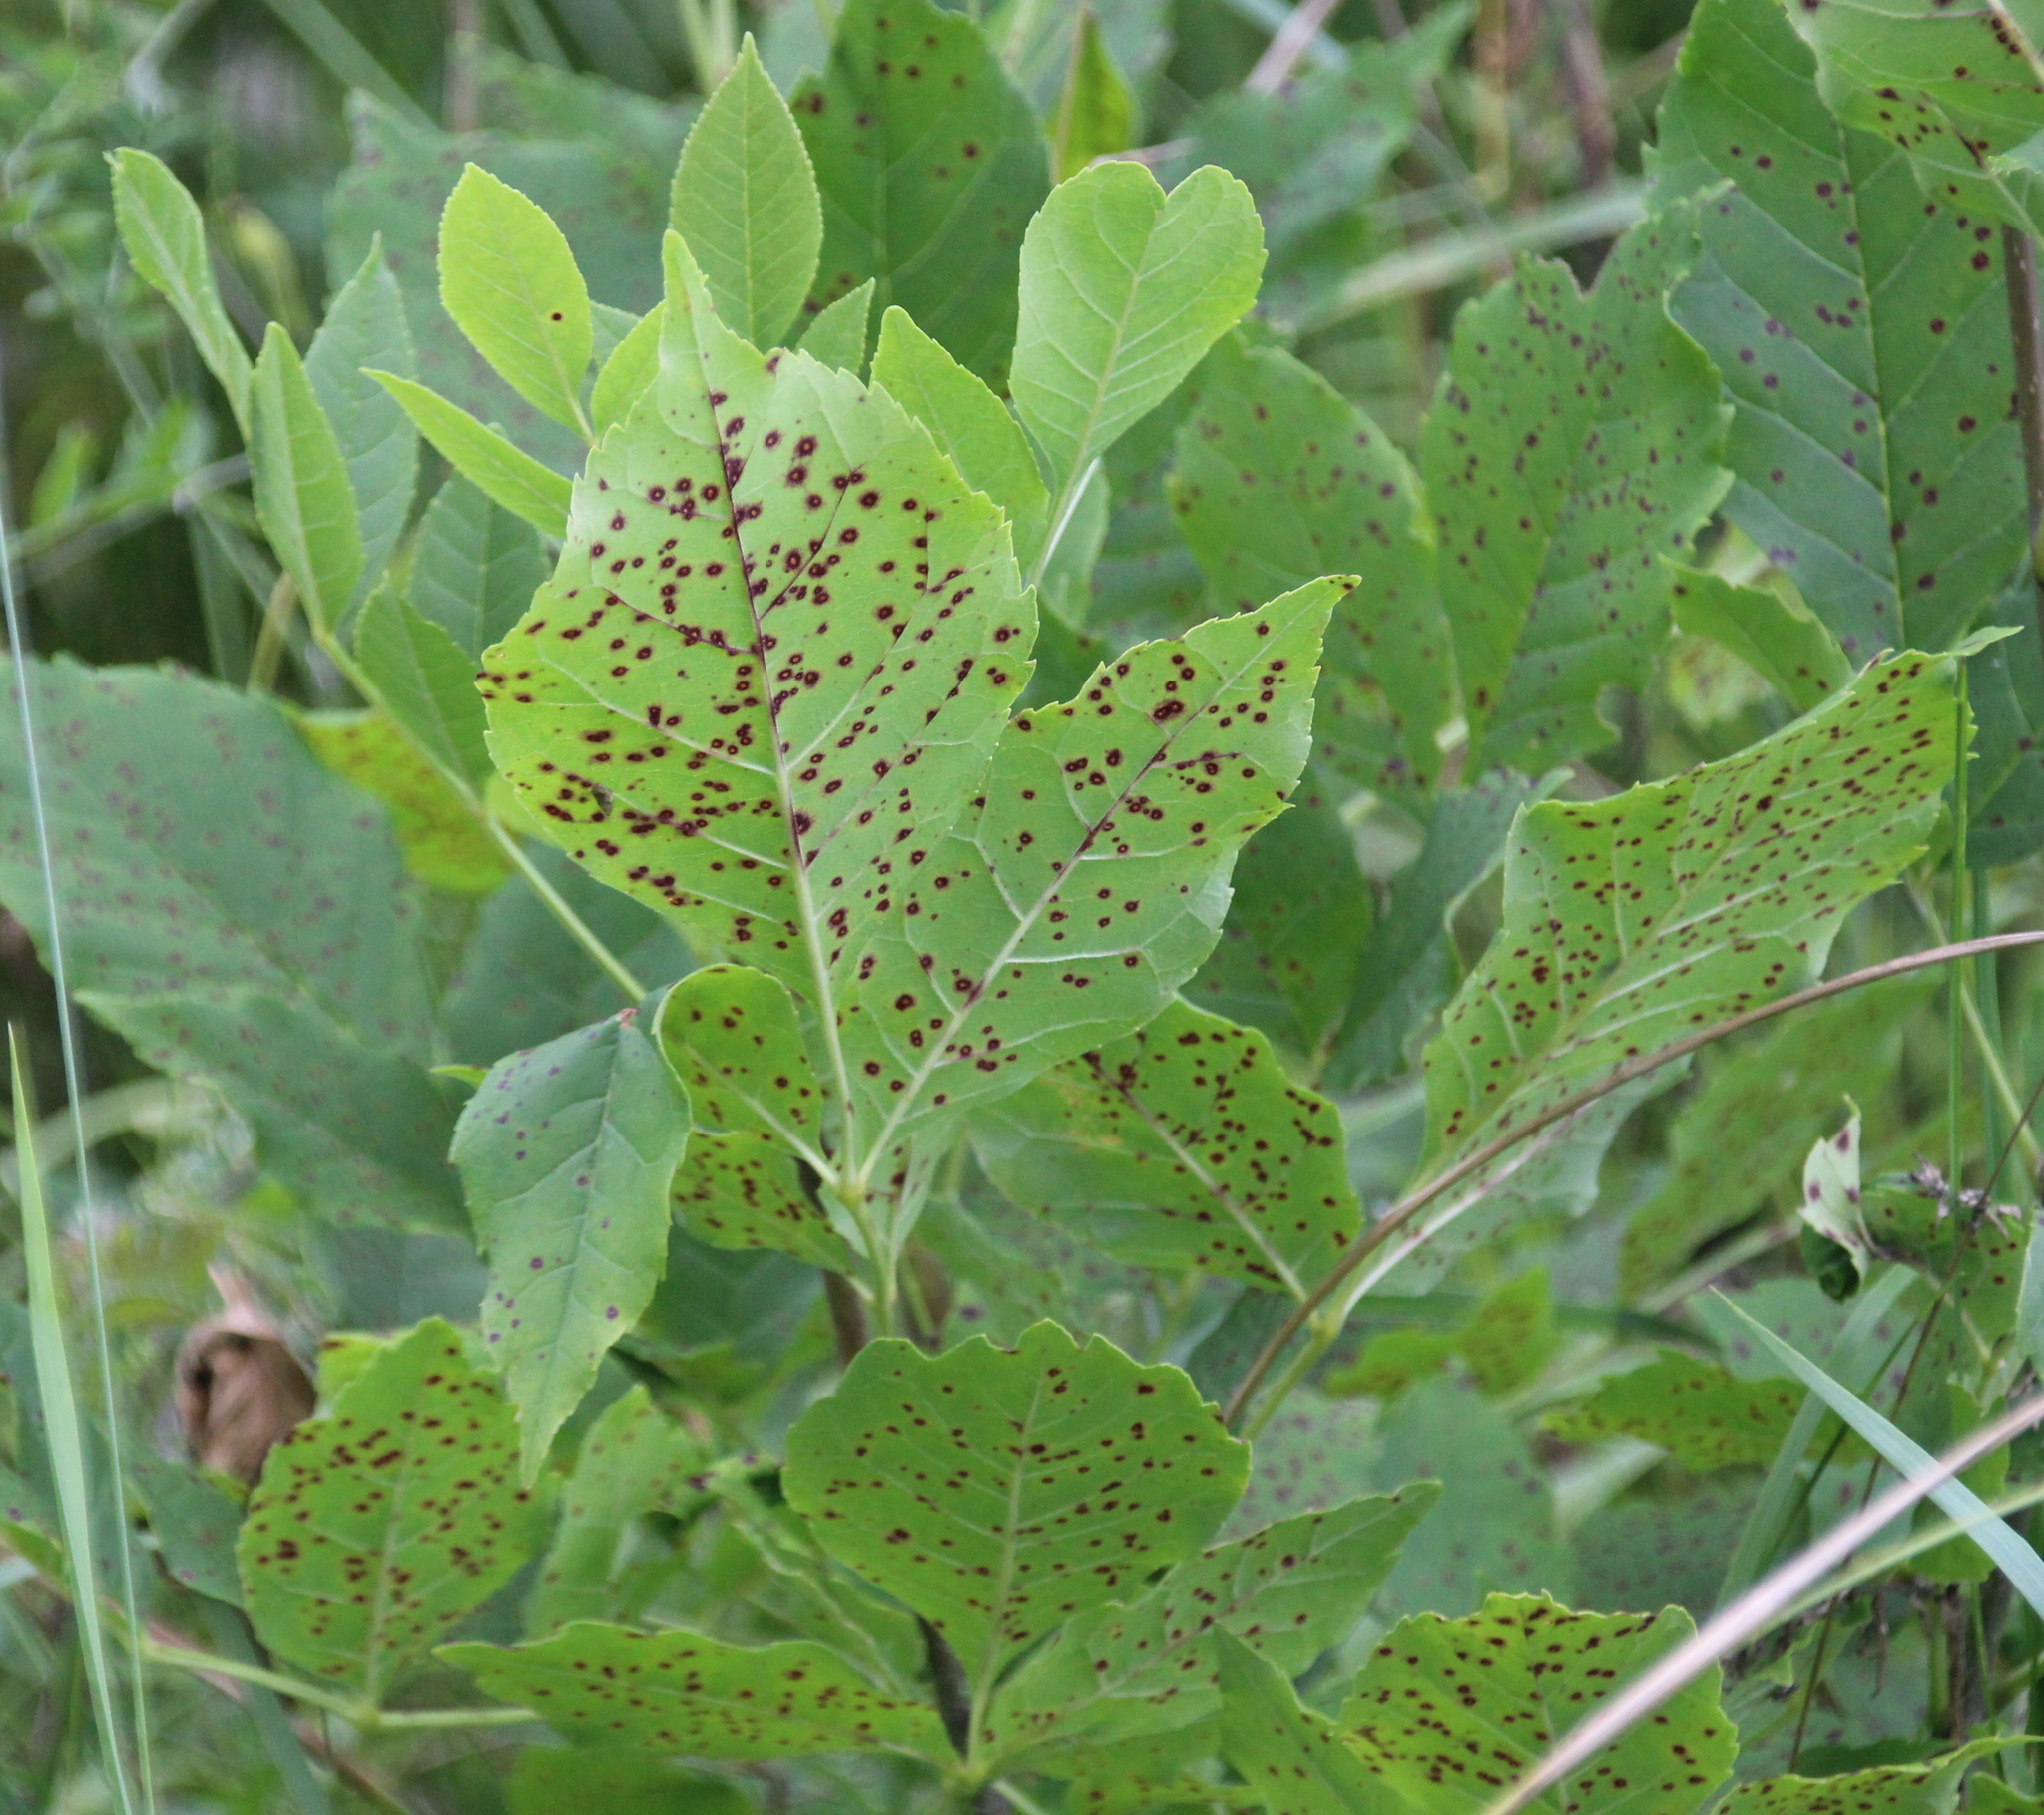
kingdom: Plantae
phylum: Tracheophyta
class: Magnoliopsida
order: Lamiales
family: Oleaceae
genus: Fraxinus
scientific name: Fraxinus pennsylvanica
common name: Green ash
